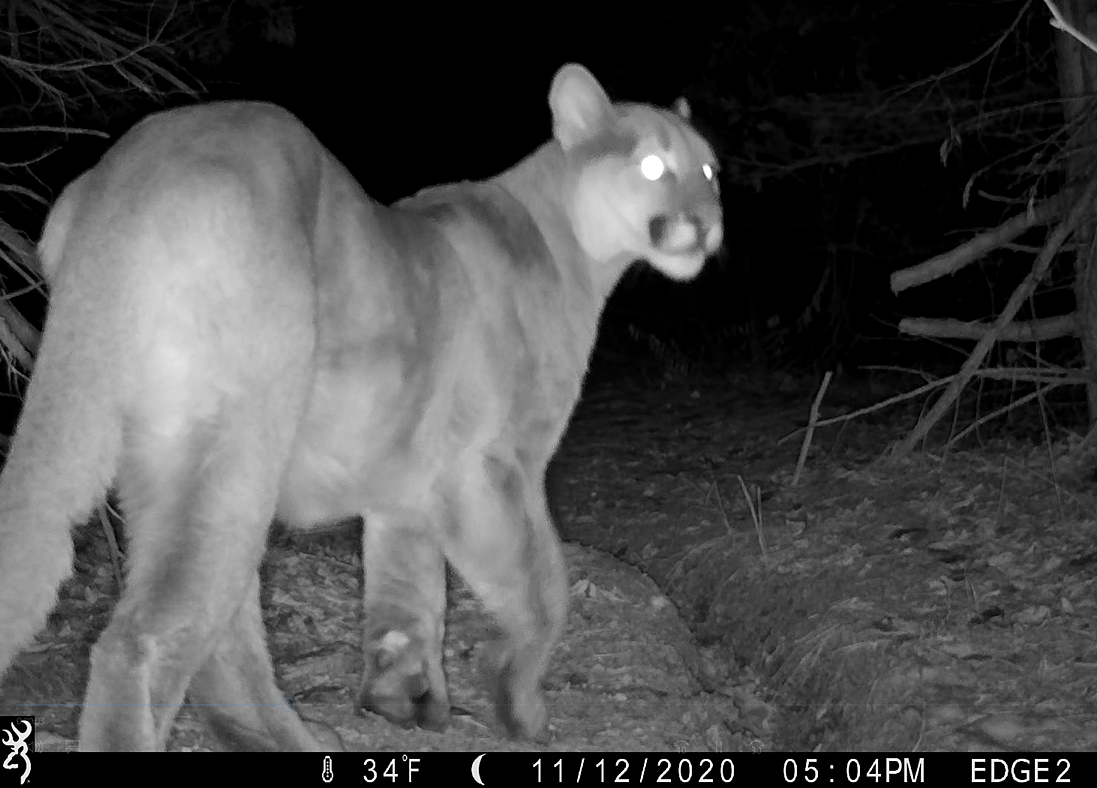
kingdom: Animalia
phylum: Chordata
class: Mammalia
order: Carnivora
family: Felidae
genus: Puma
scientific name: Puma concolor
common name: Puma
